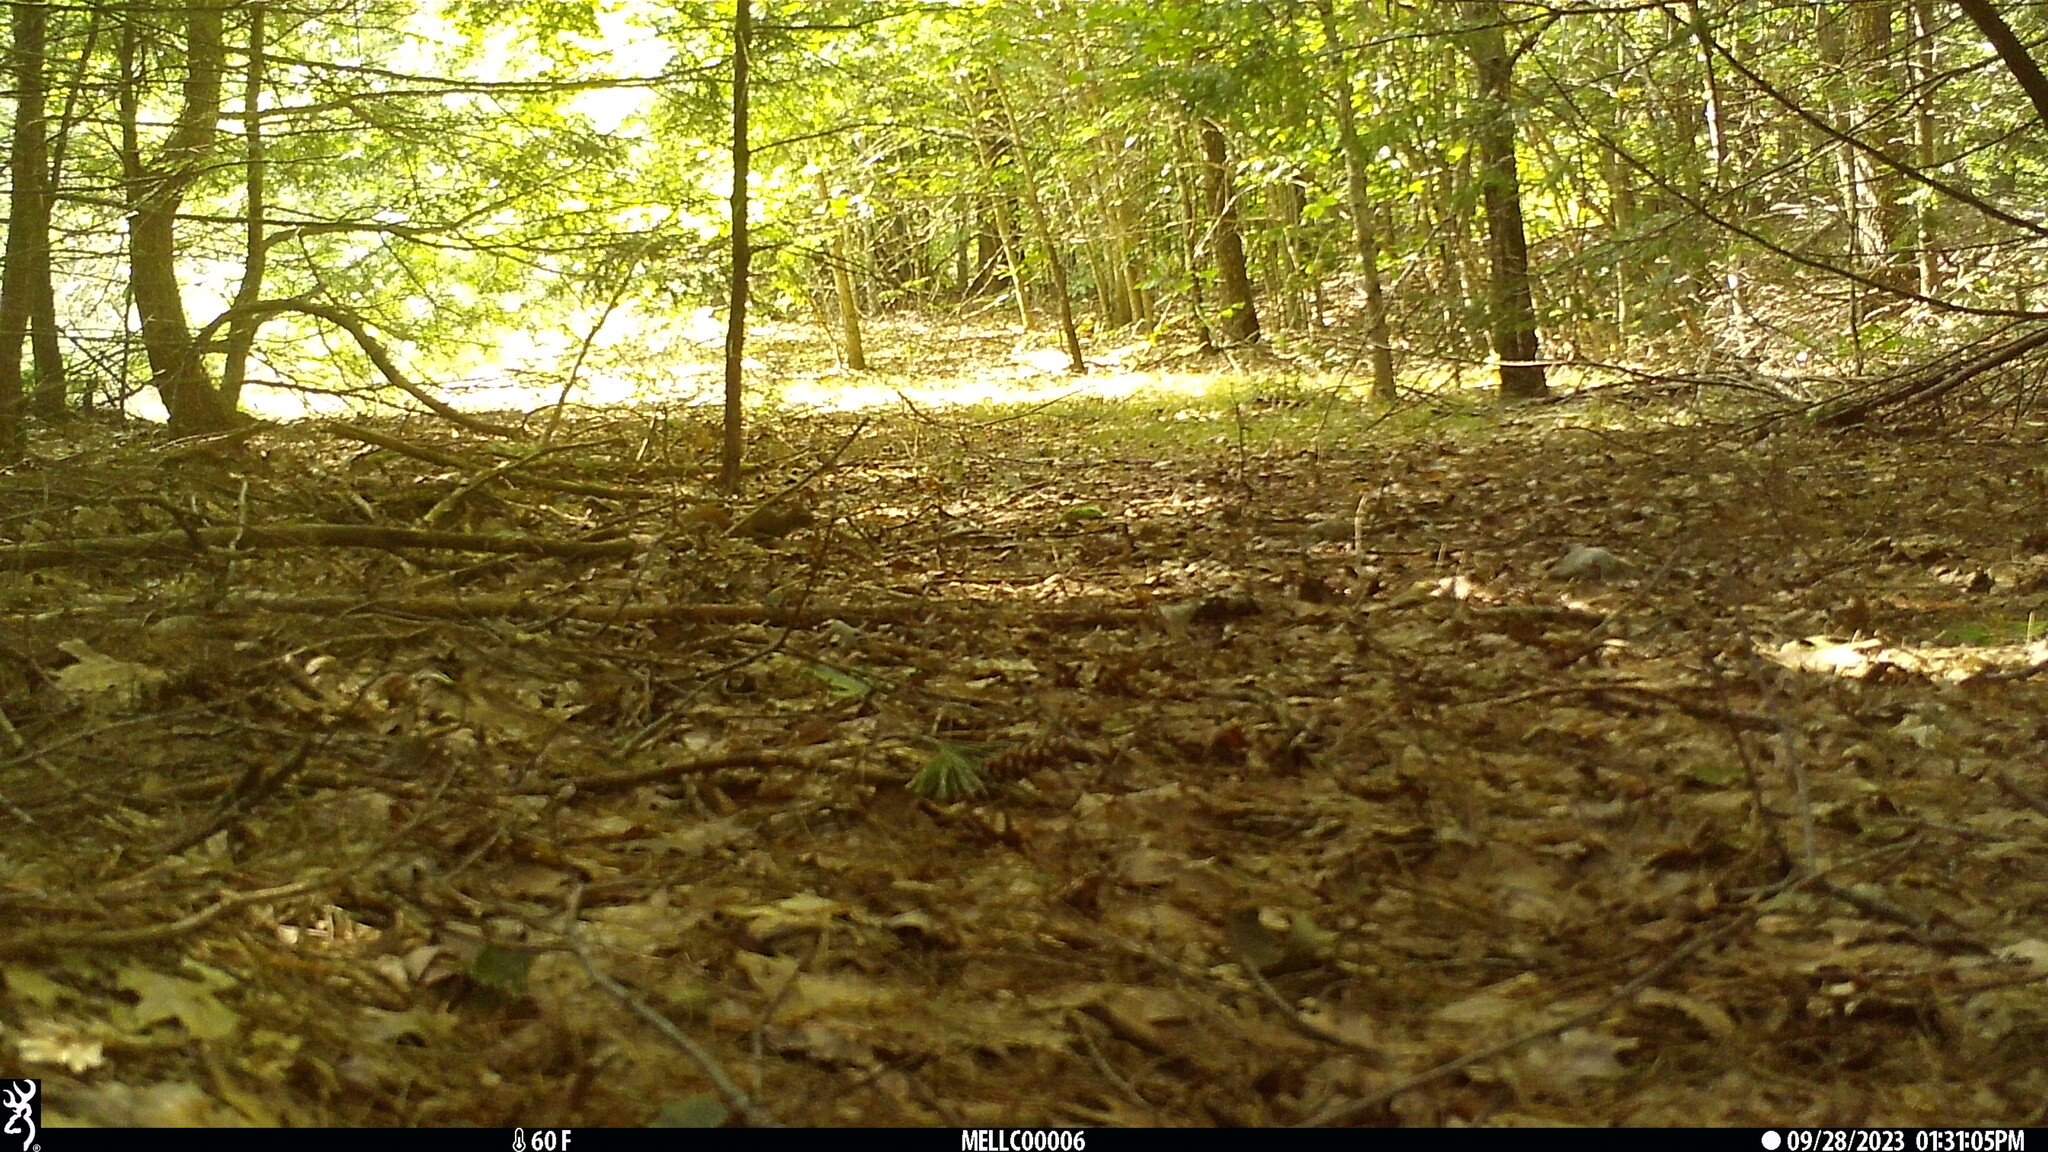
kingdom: Animalia
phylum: Chordata
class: Mammalia
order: Rodentia
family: Sciuridae
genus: Tamiasciurus
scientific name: Tamiasciurus hudsonicus
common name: Red squirrel
